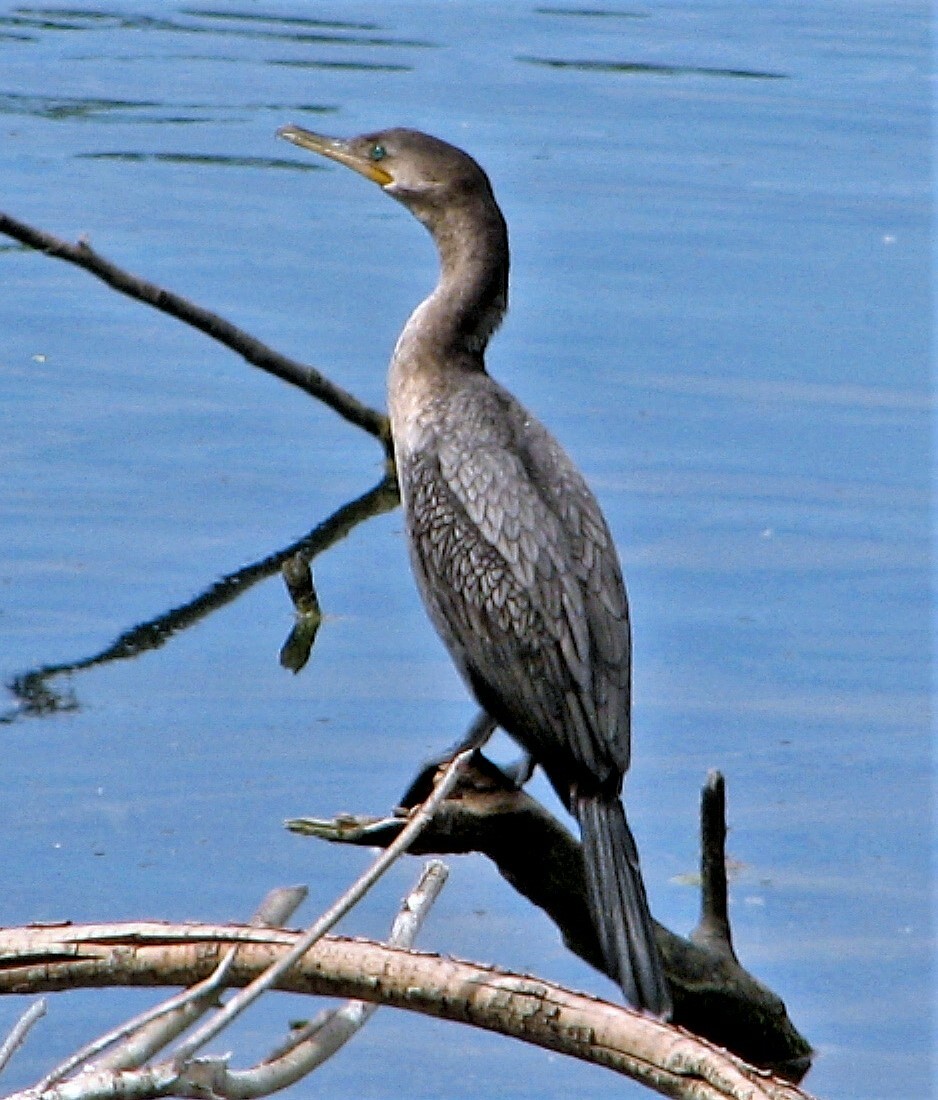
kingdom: Animalia
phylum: Chordata
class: Aves
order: Suliformes
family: Phalacrocoracidae
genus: Phalacrocorax
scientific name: Phalacrocorax brasilianus
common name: Neotropic cormorant
